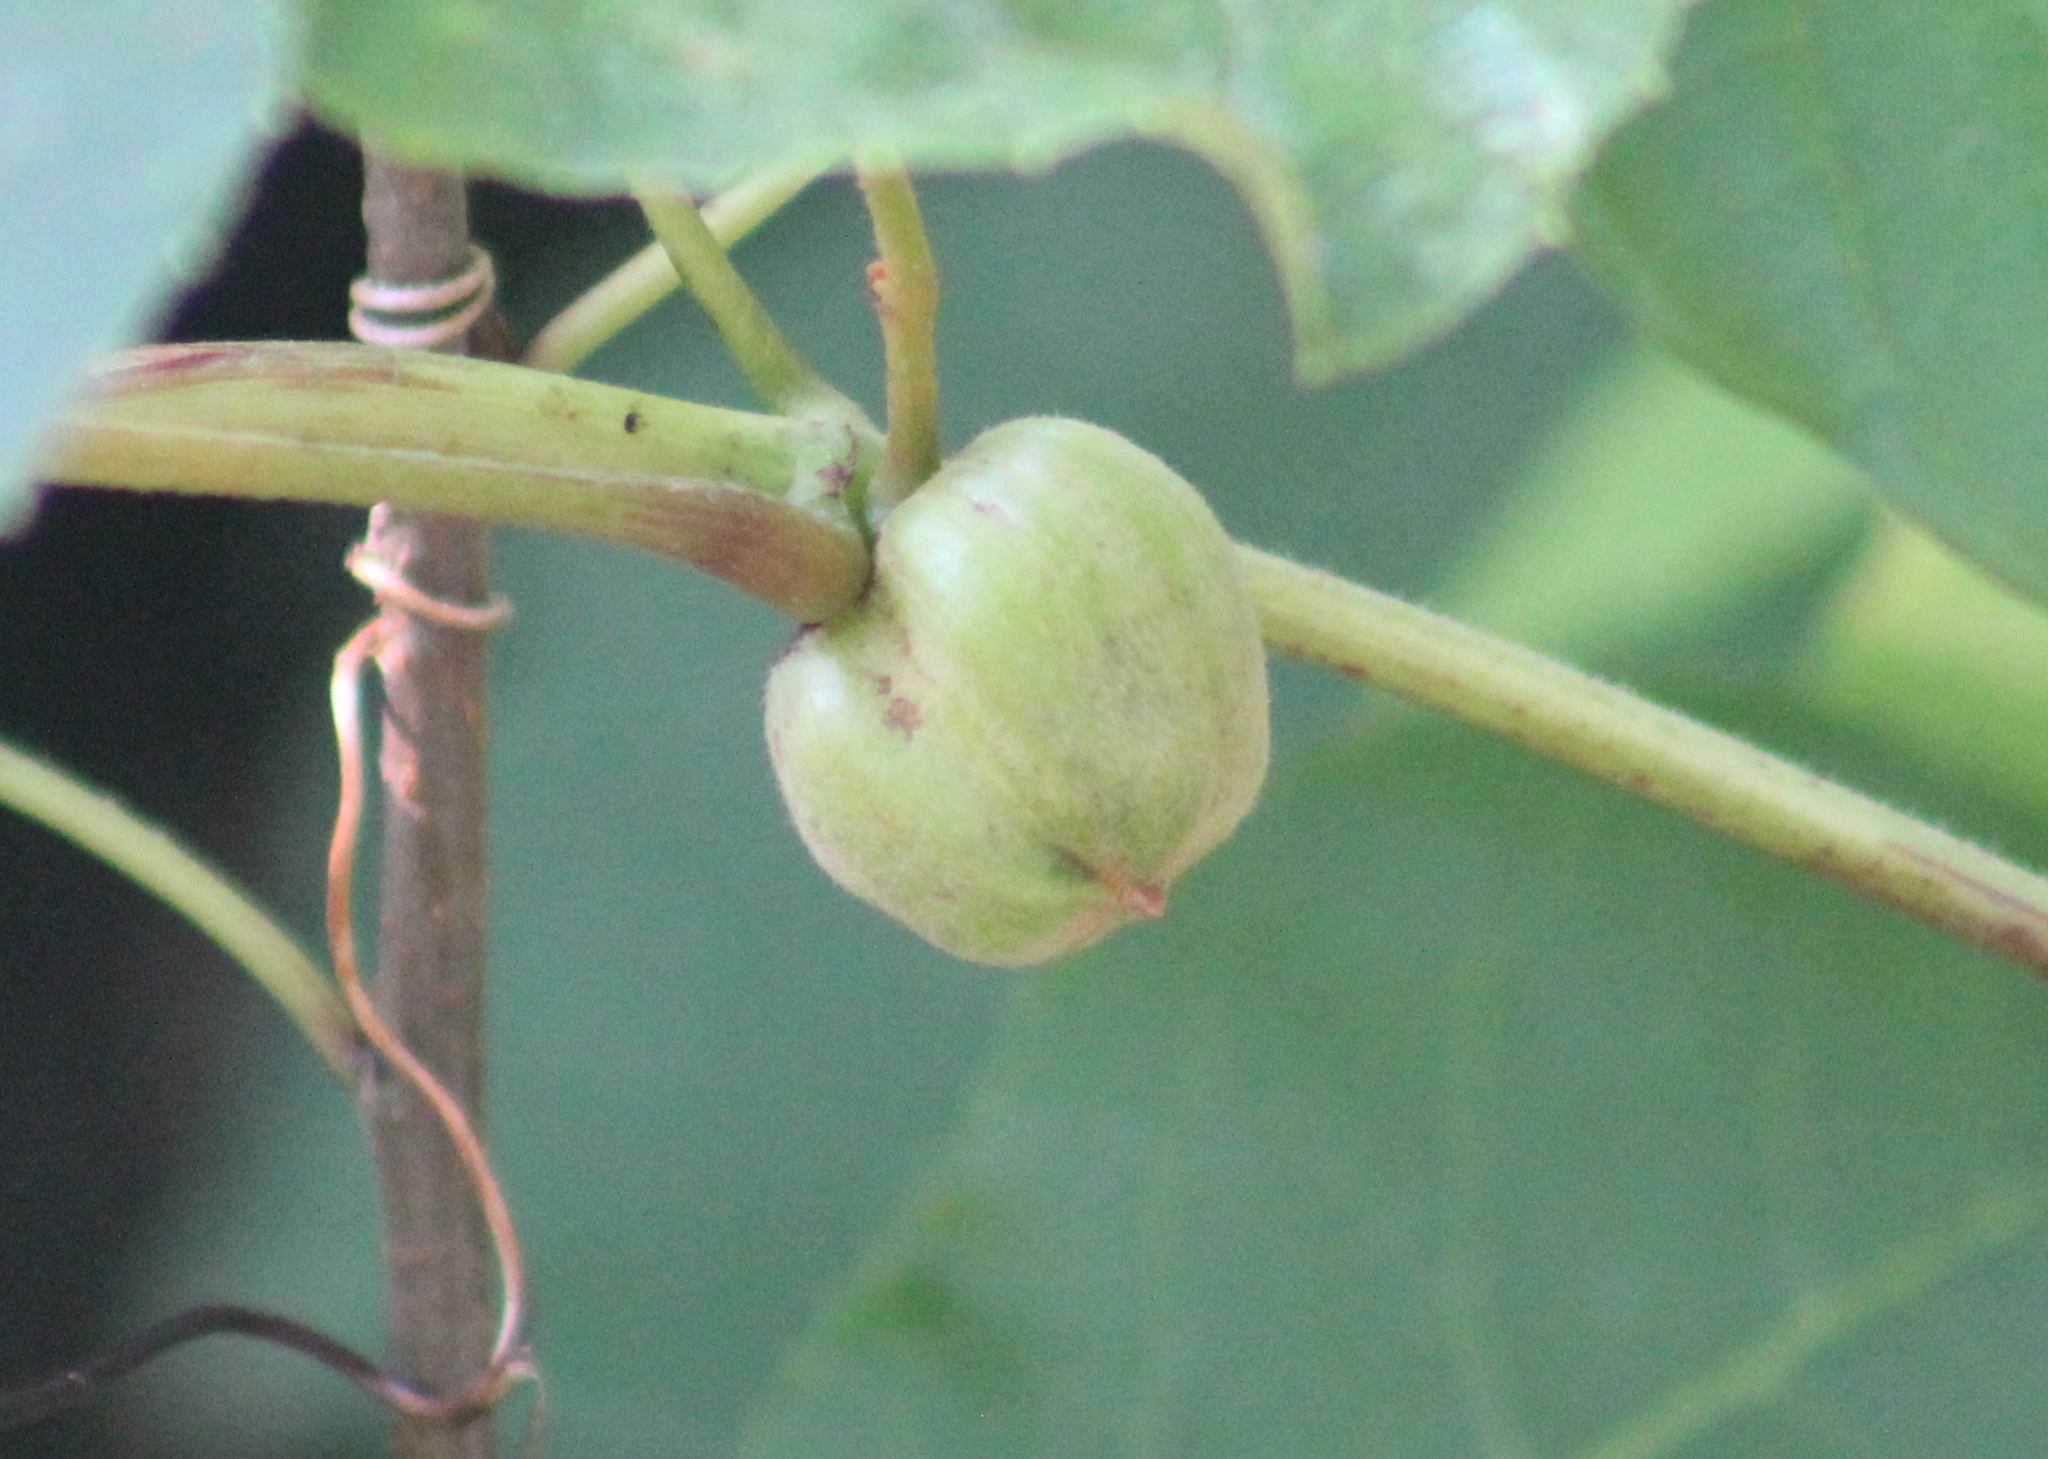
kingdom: Animalia
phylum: Arthropoda
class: Insecta
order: Diptera
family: Cecidomyiidae
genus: Ampelomyia
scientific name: Ampelomyia vitispomum
